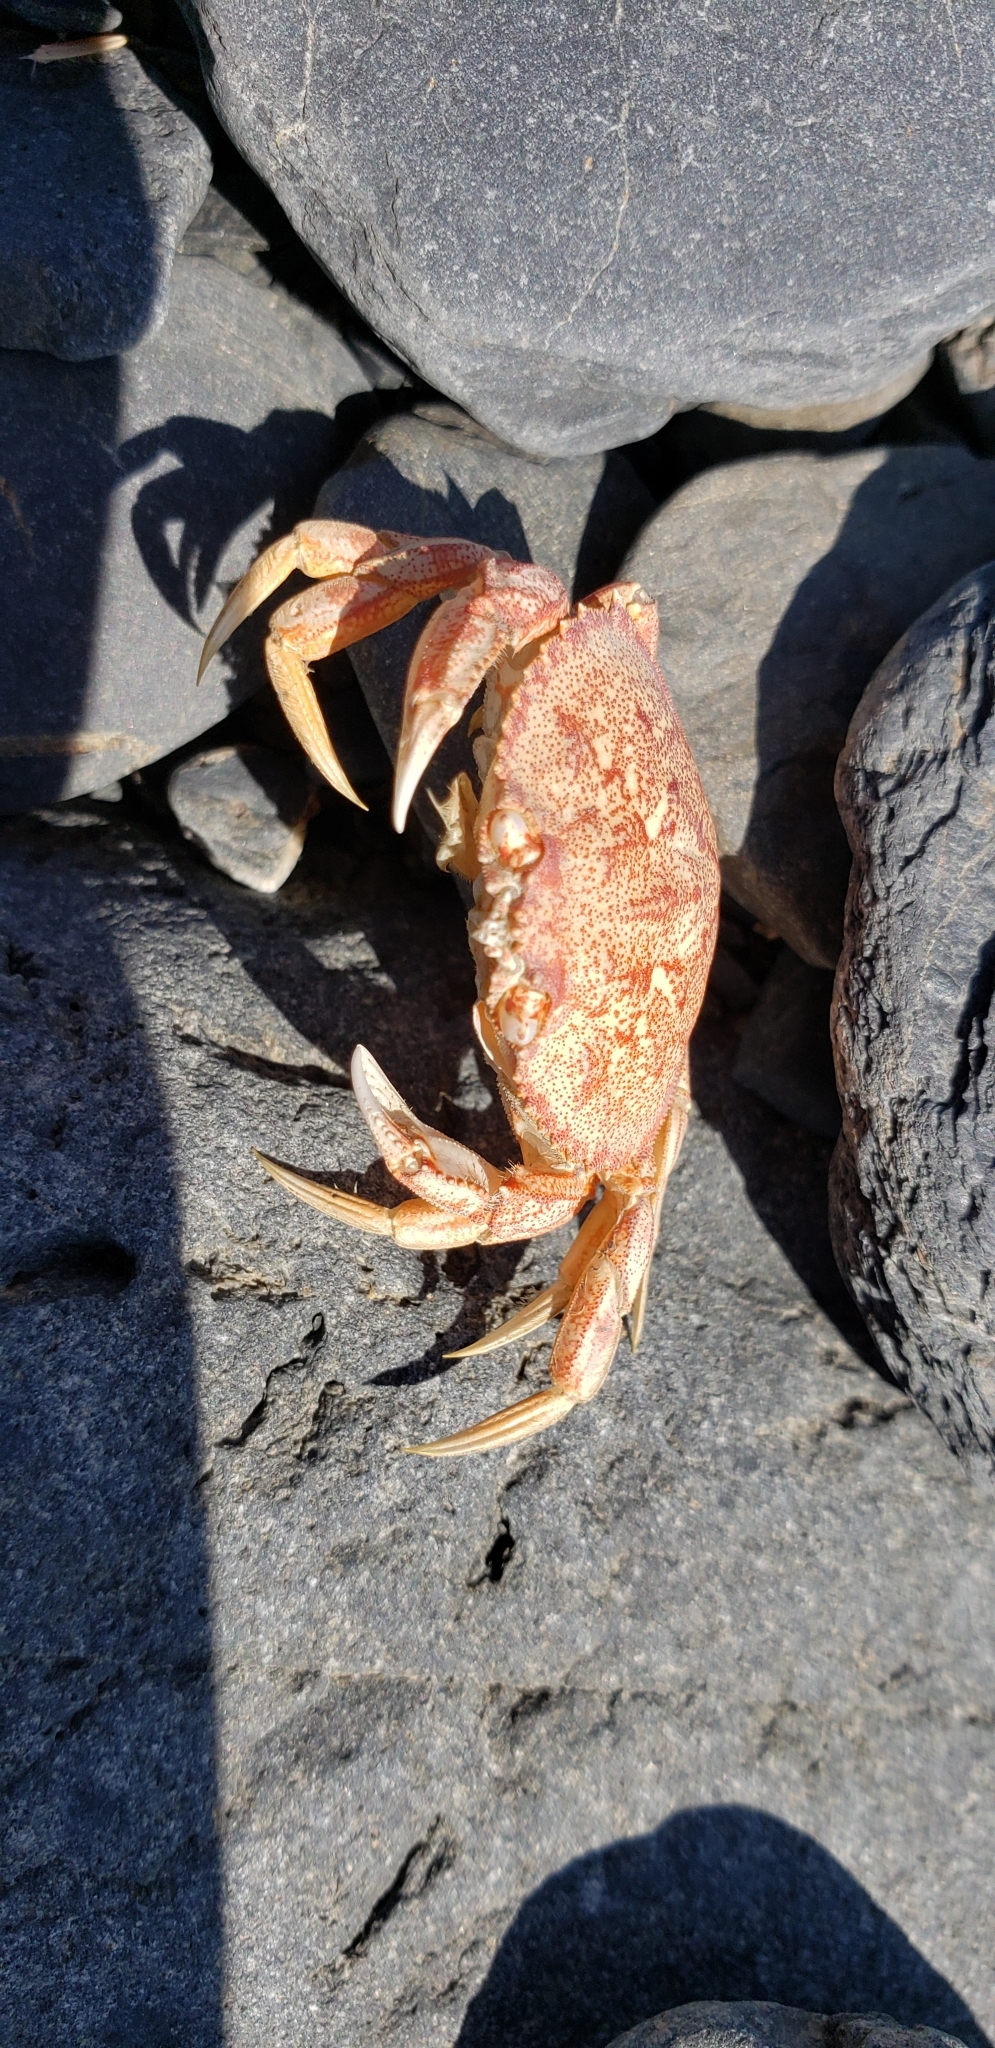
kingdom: Animalia
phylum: Arthropoda
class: Malacostraca
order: Decapoda
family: Cancridae
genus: Metacarcinus
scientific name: Metacarcinus magister
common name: Californian crab
